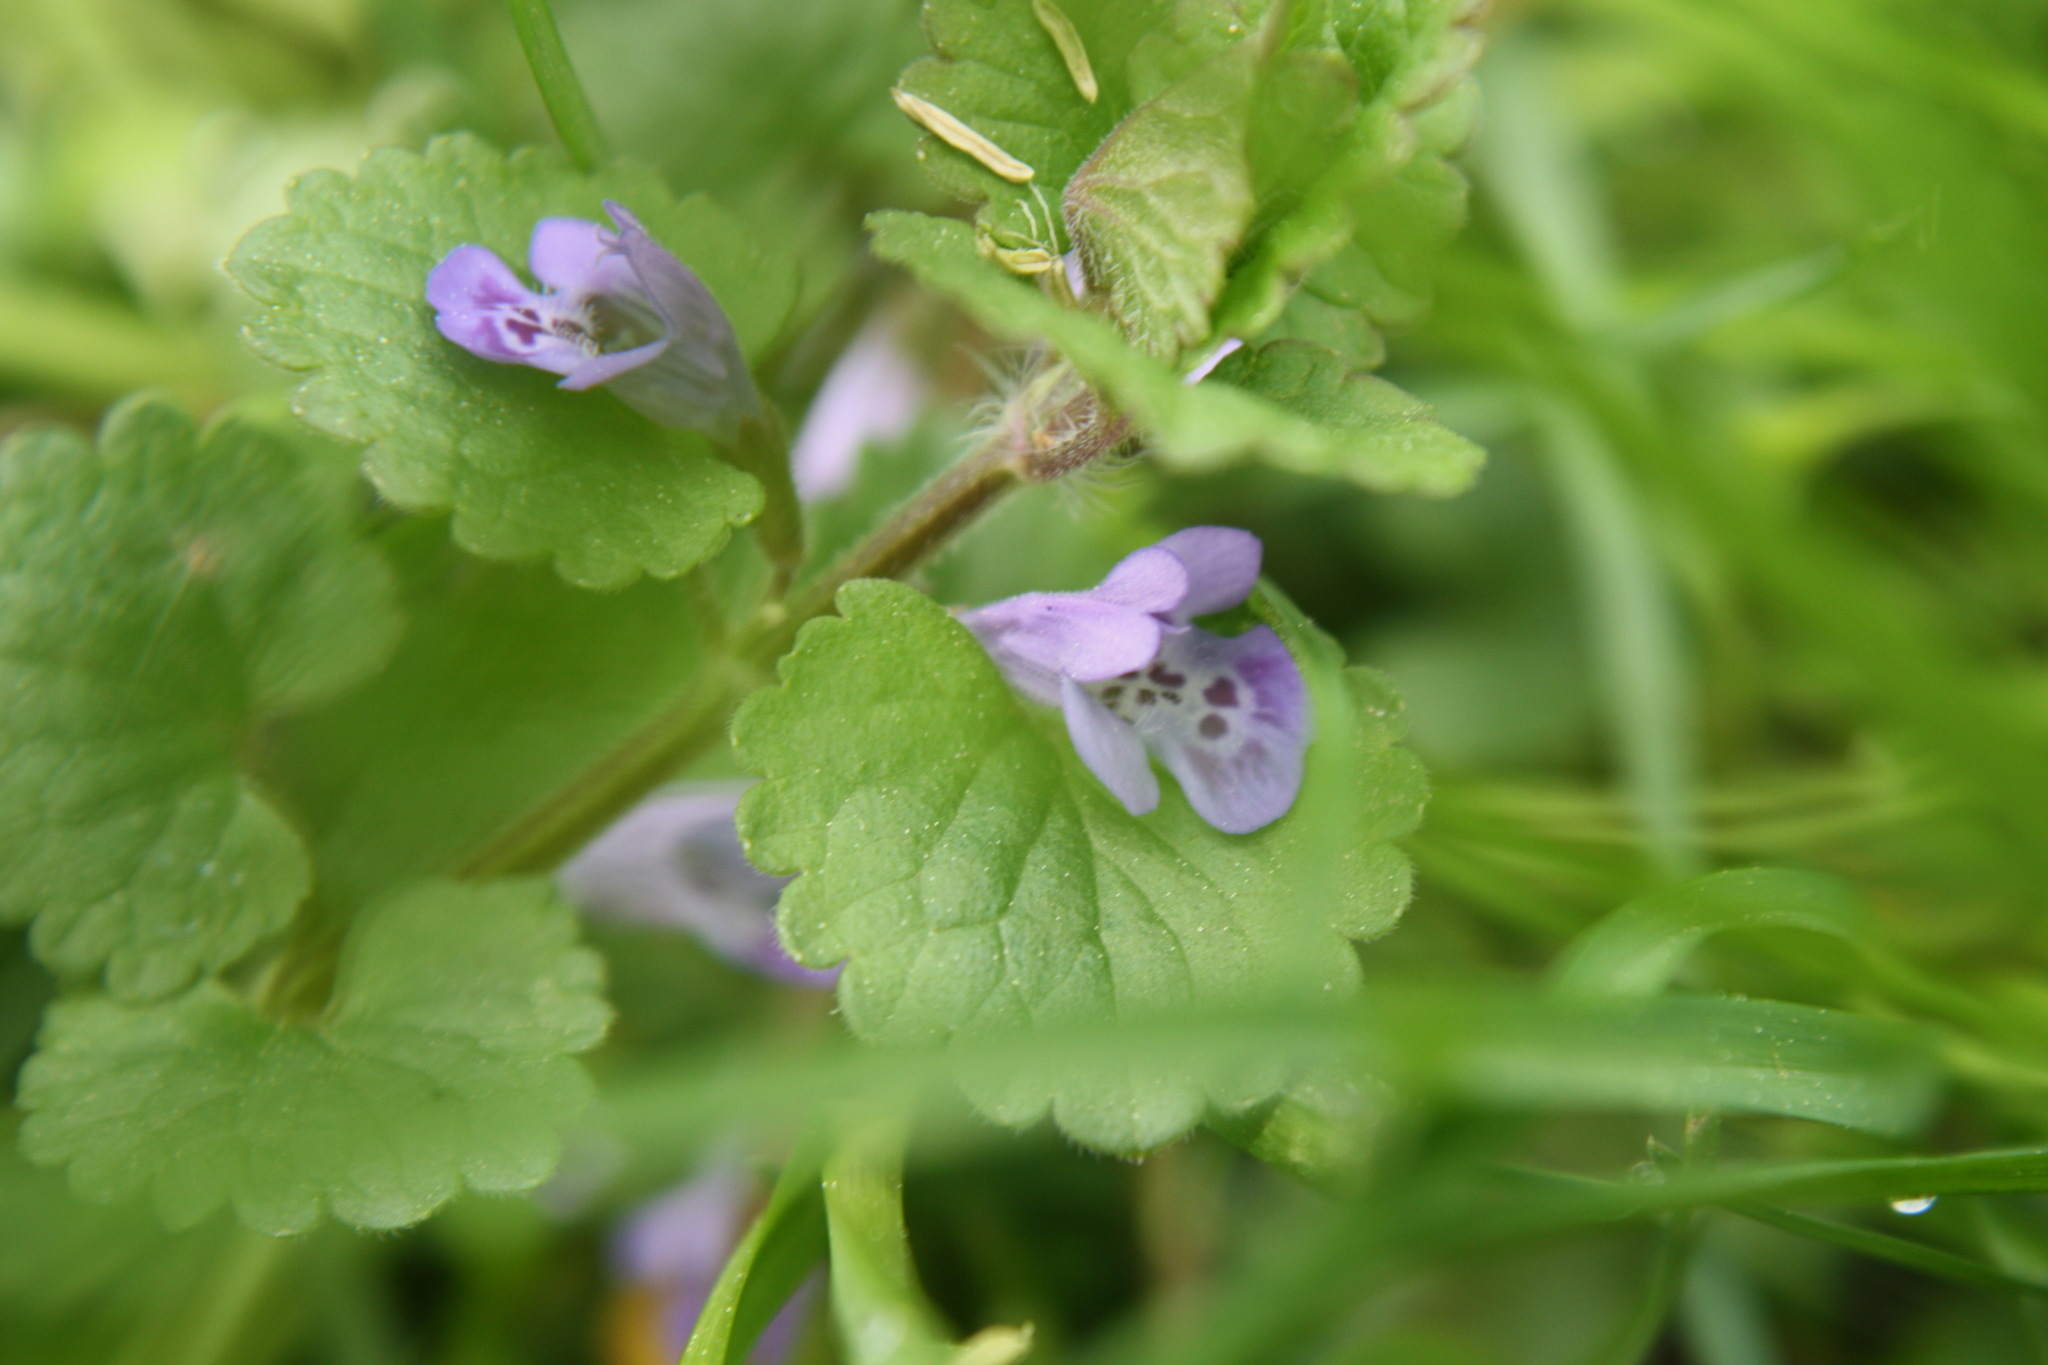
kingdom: Plantae
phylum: Tracheophyta
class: Magnoliopsida
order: Lamiales
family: Lamiaceae
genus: Glechoma
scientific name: Glechoma hederacea
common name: Ground ivy
